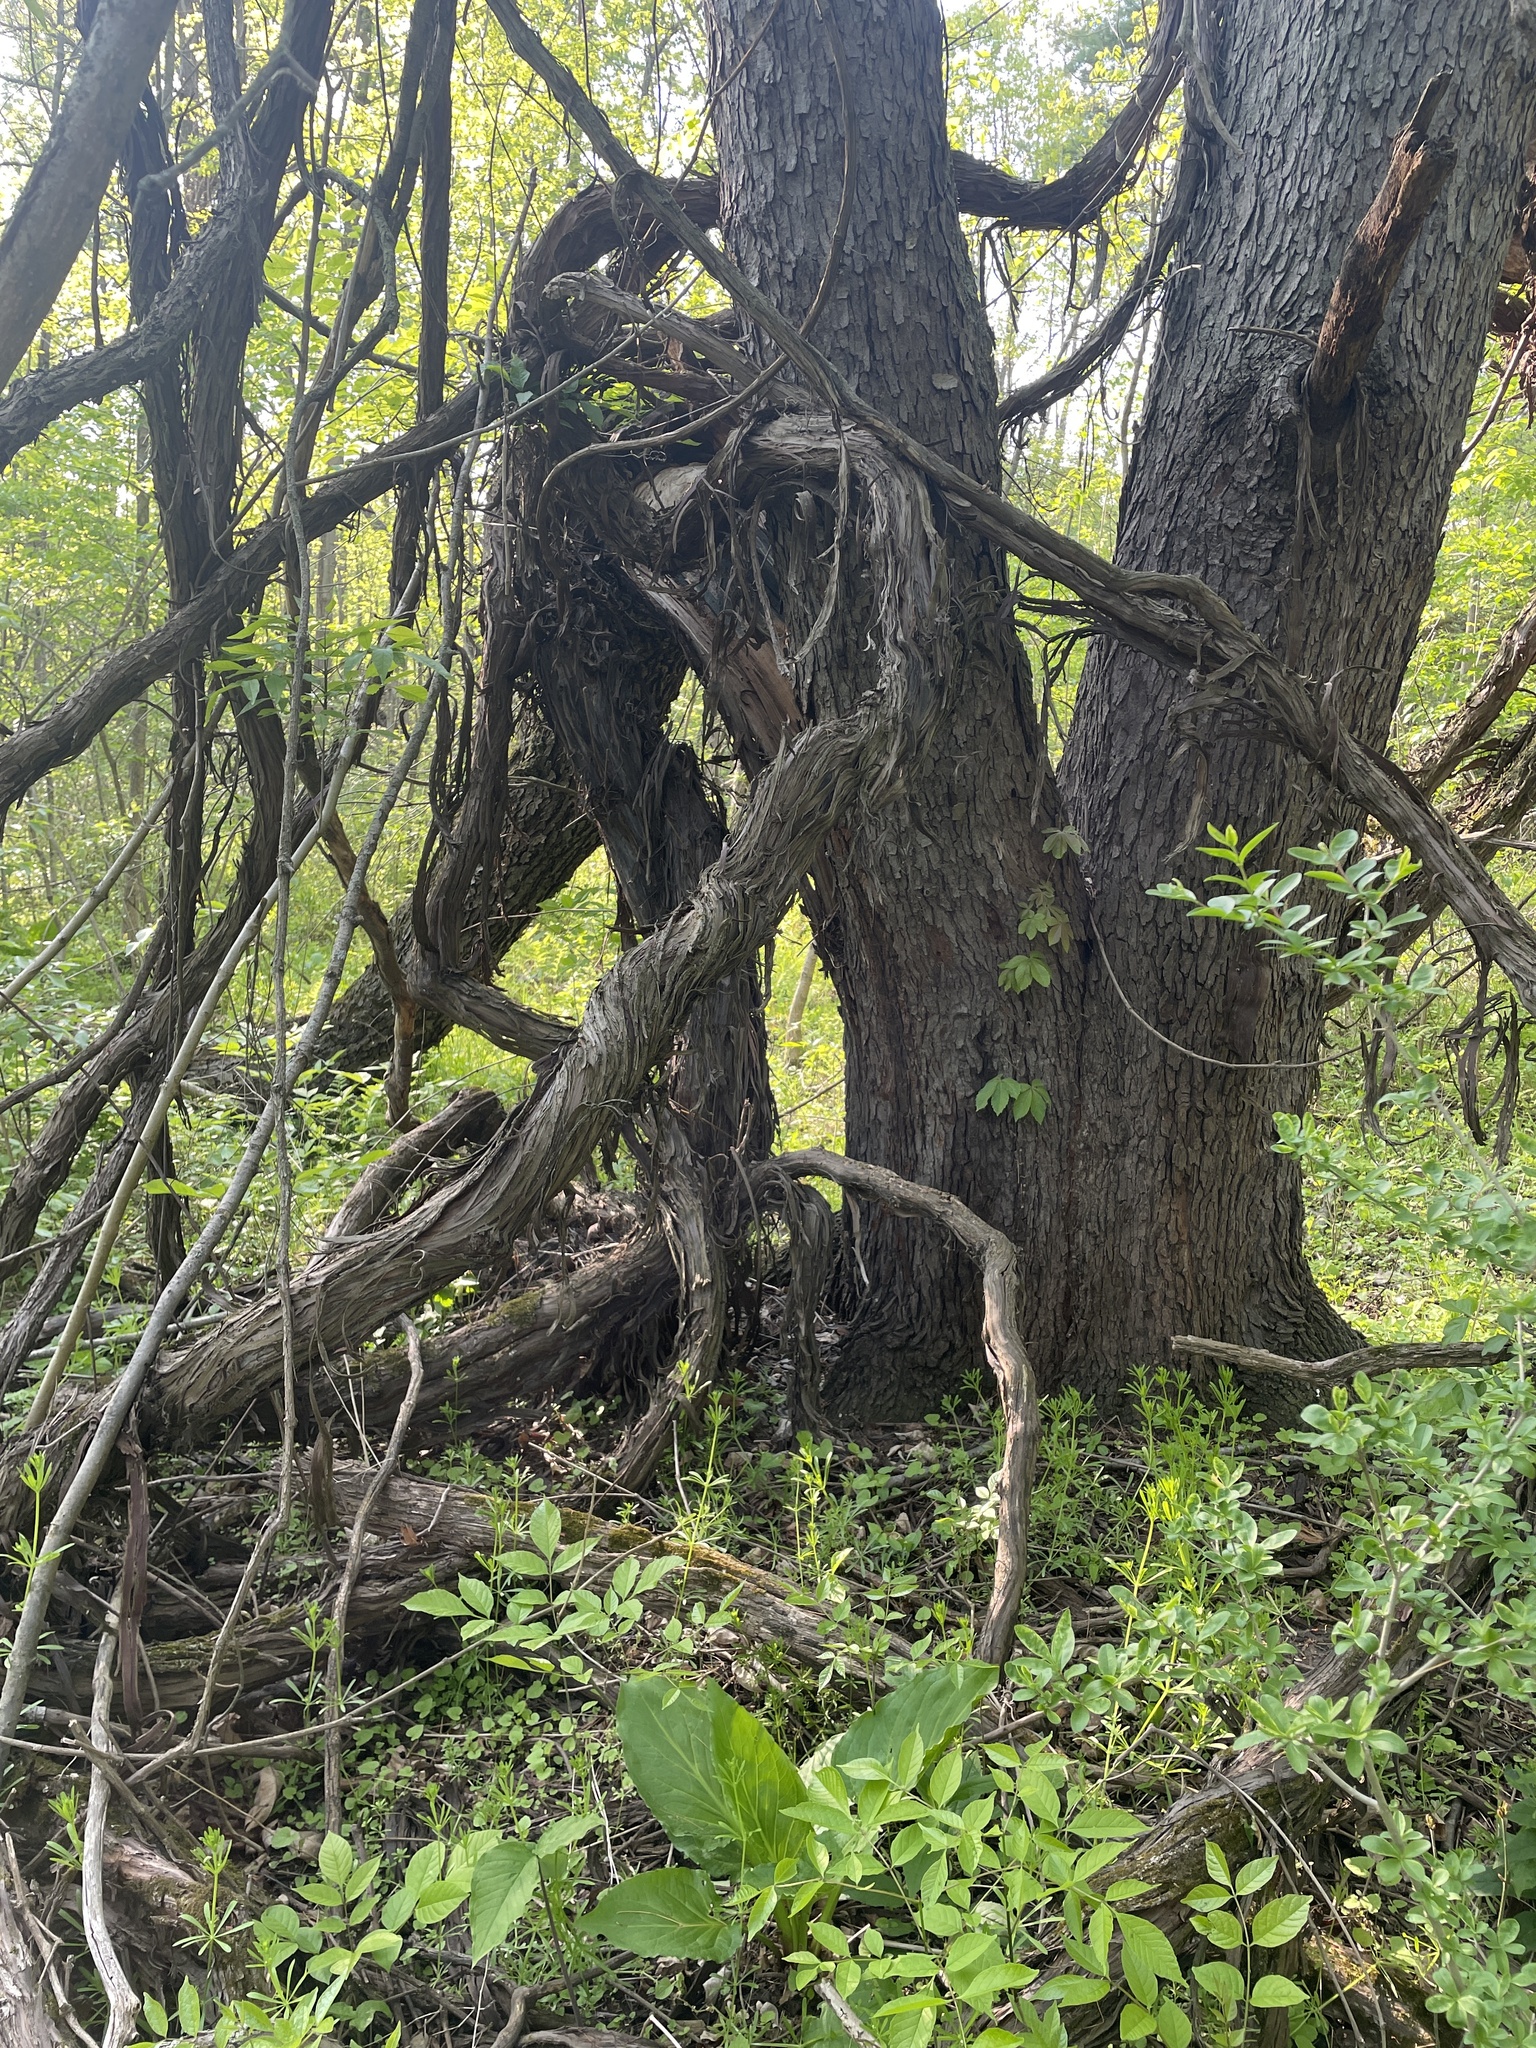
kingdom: Plantae
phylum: Tracheophyta
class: Magnoliopsida
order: Vitales
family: Vitaceae
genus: Vitis
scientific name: Vitis riparia
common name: Frost grape
